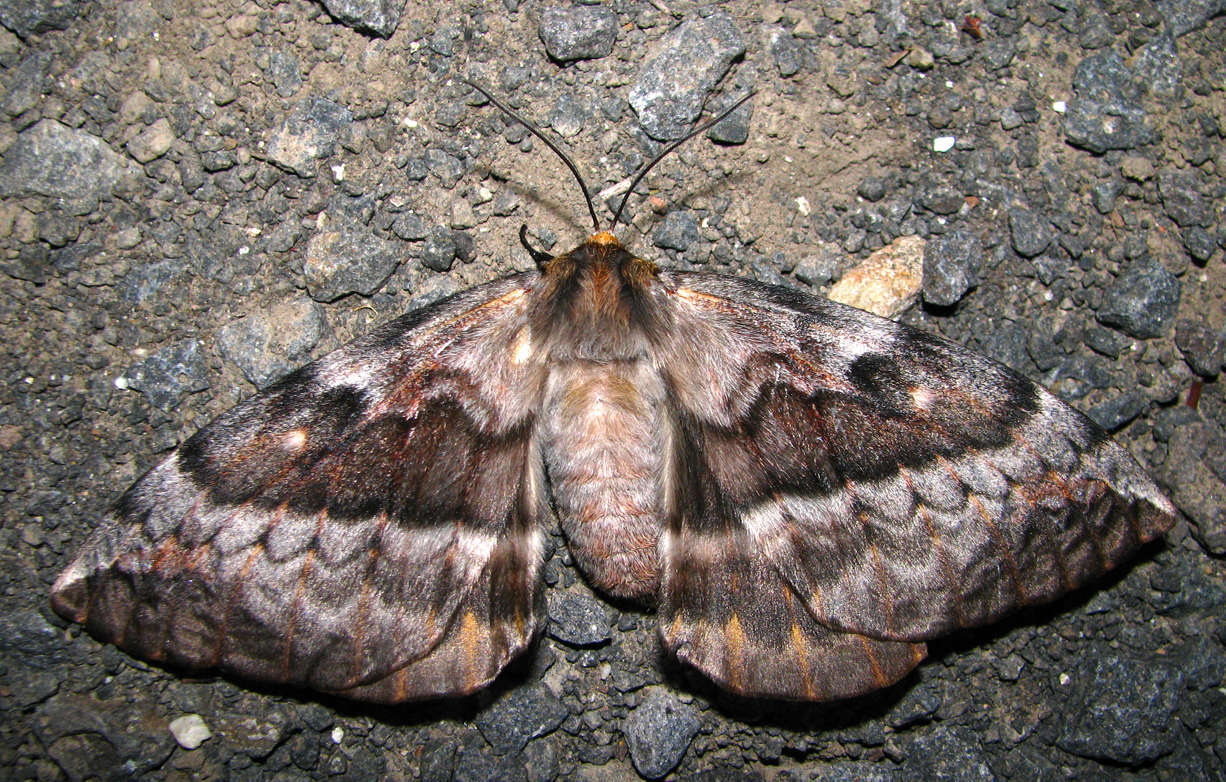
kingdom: Animalia
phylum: Arthropoda
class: Insecta
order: Lepidoptera
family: Anthelidae
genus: Chelepteryx
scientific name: Chelepteryx collesi
